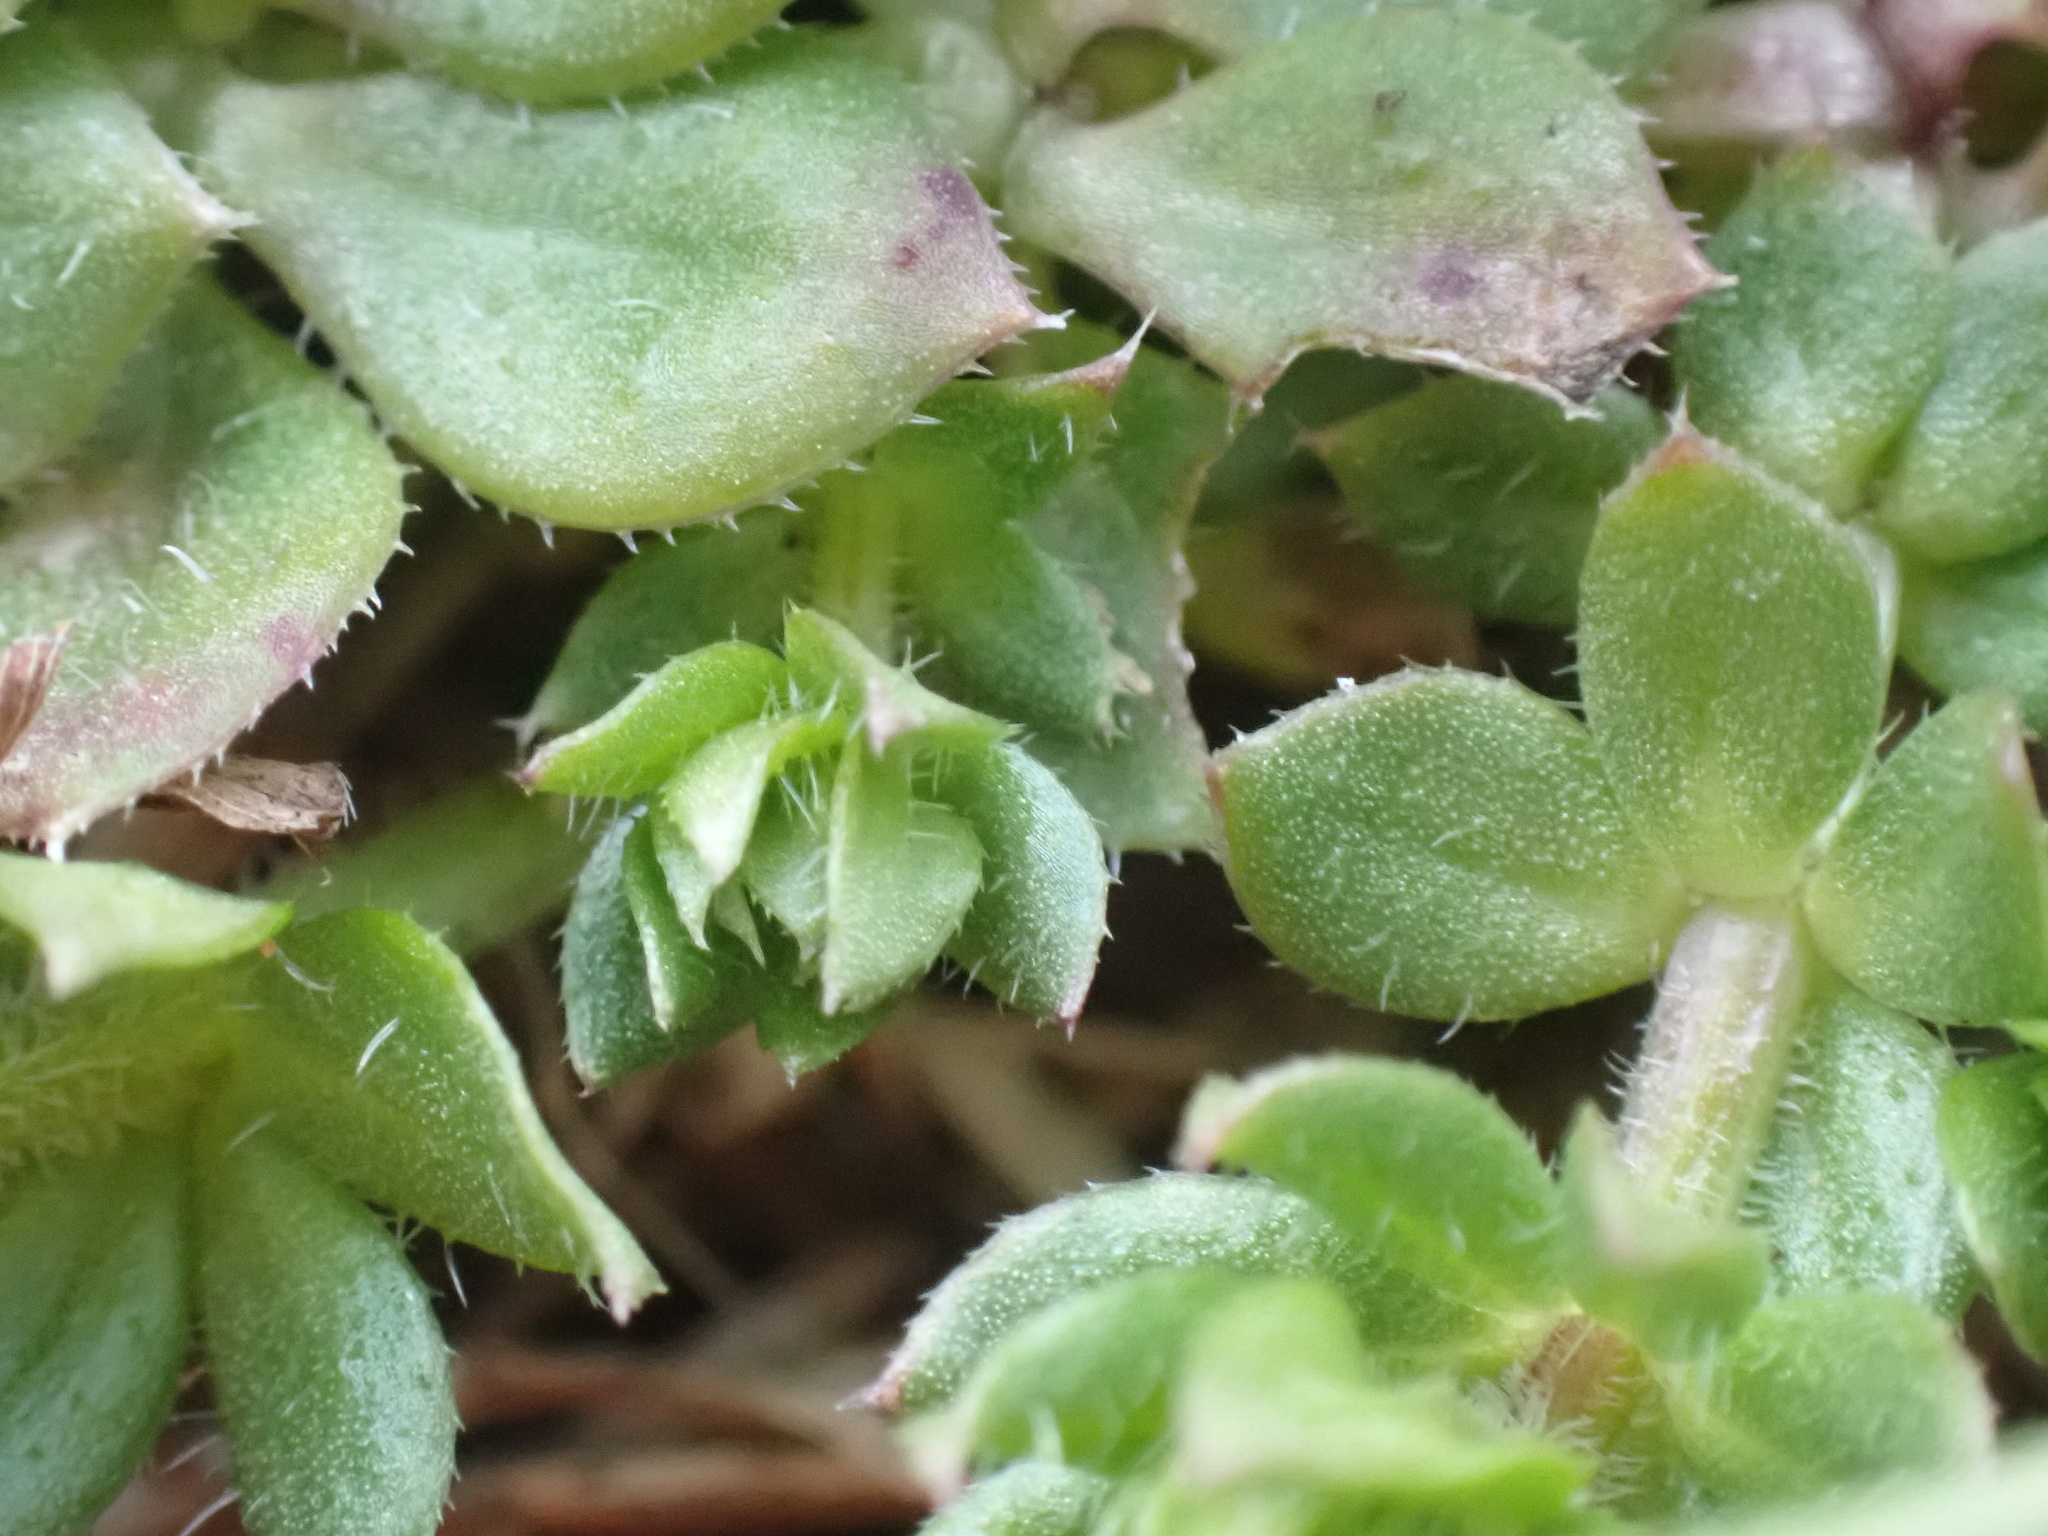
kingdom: Plantae
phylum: Tracheophyta
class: Magnoliopsida
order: Gentianales
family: Rubiaceae
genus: Sherardia
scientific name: Sherardia arvensis
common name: Field madder
